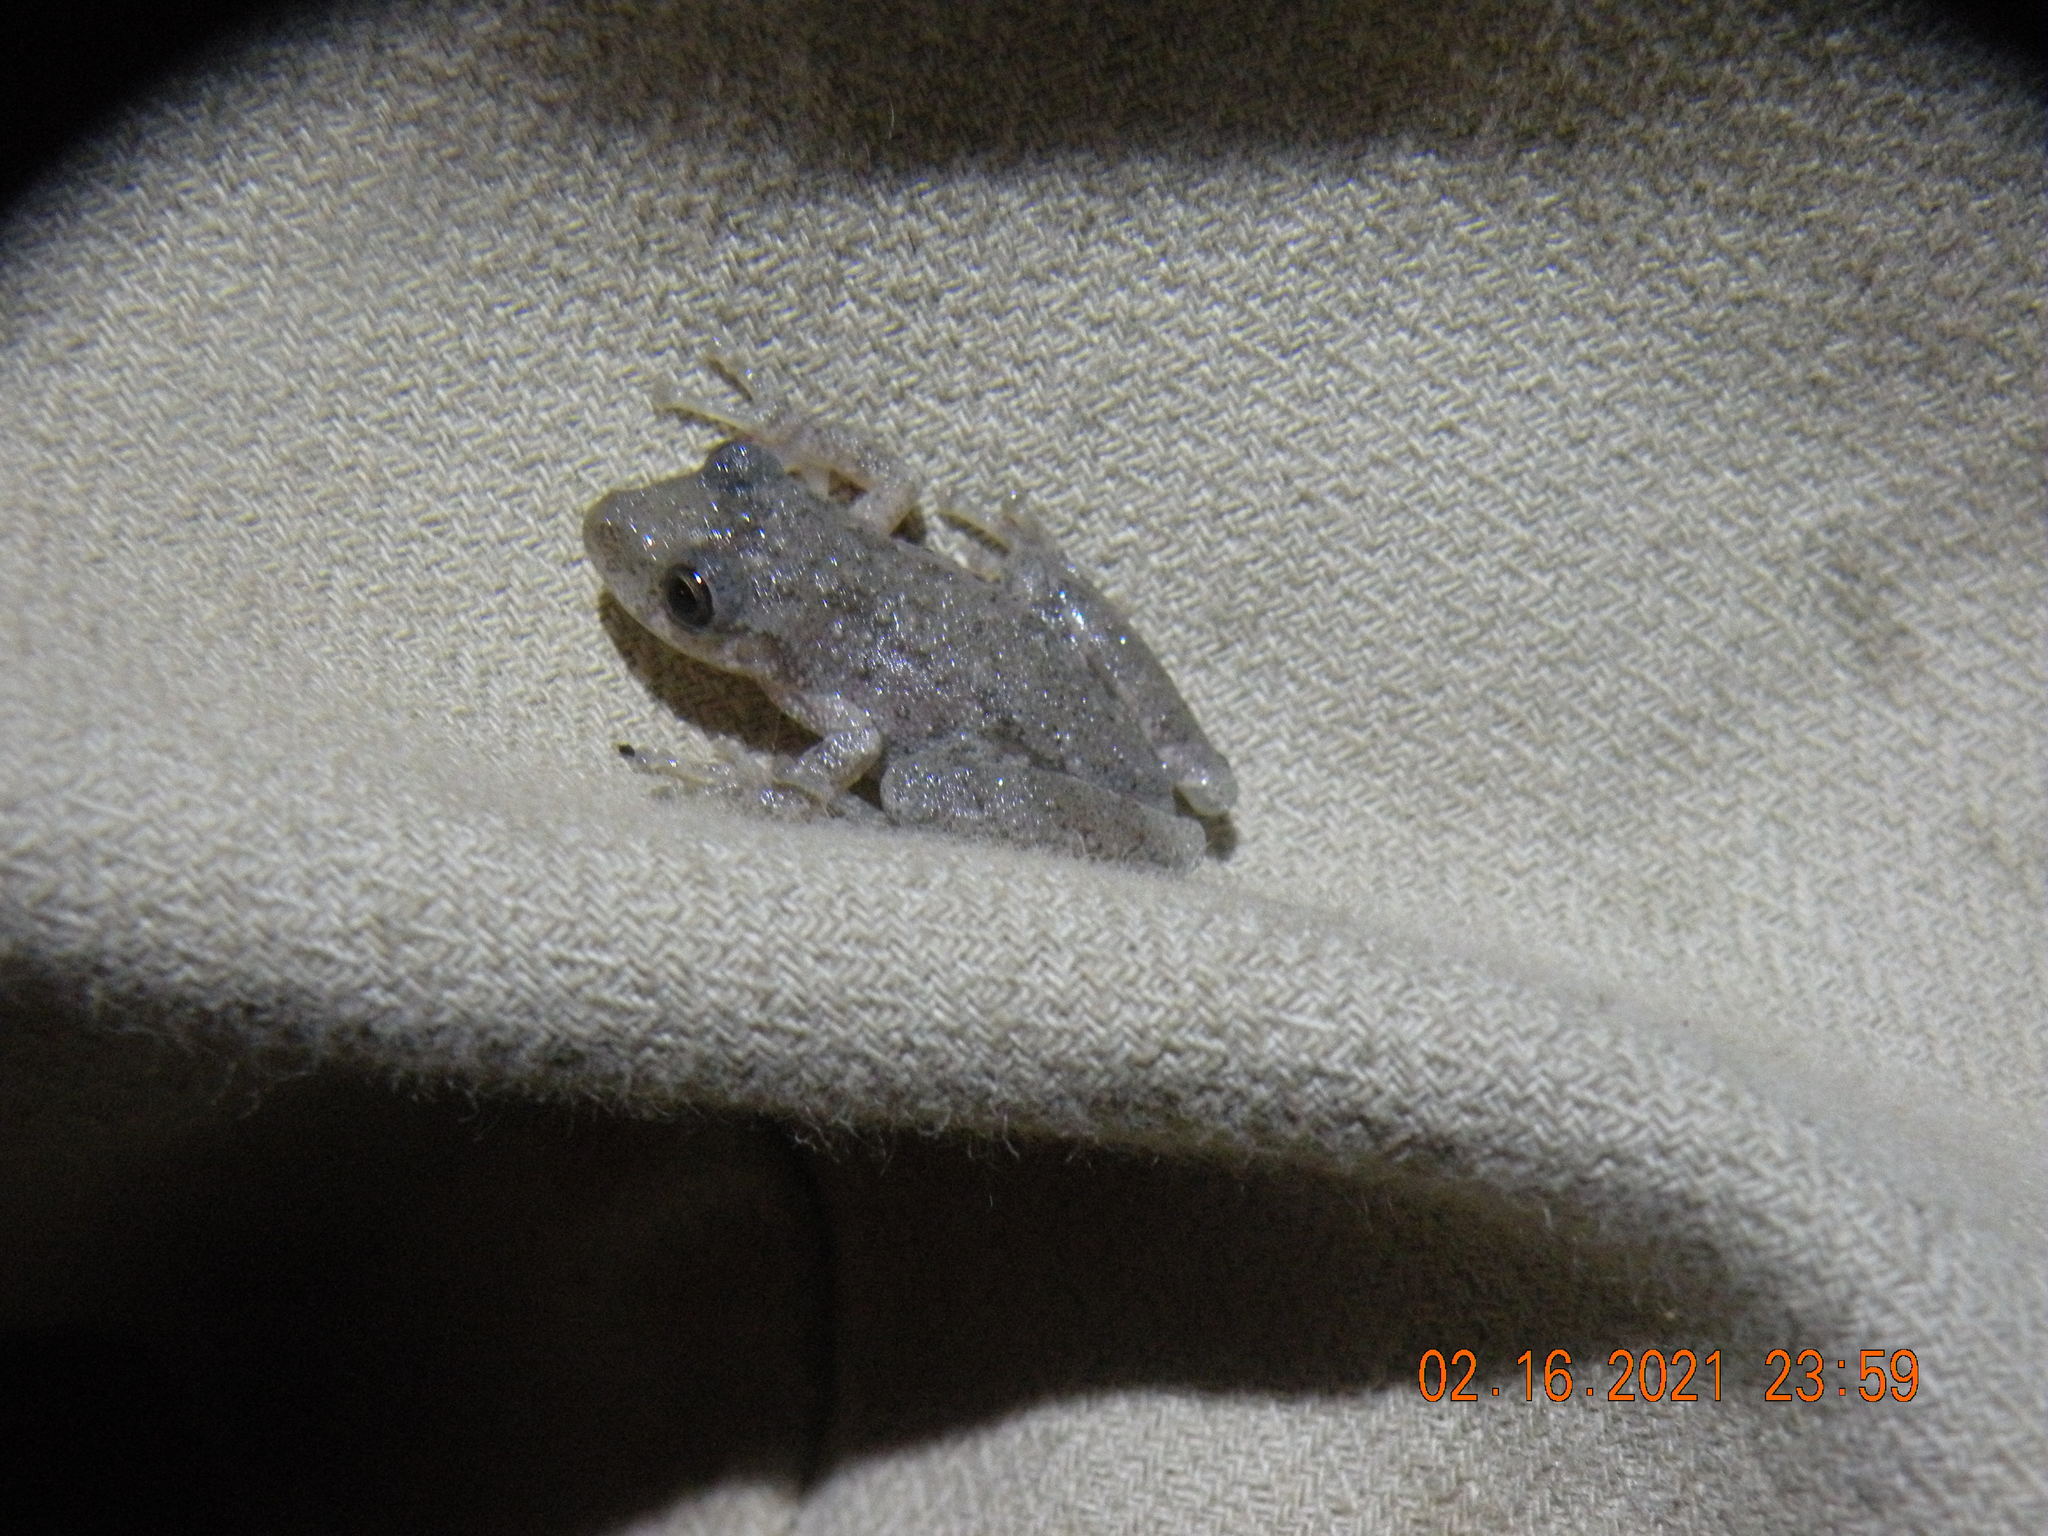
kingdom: Animalia
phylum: Chordata
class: Amphibia
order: Anura
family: Hylidae
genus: Scinax
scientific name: Scinax granulatus
